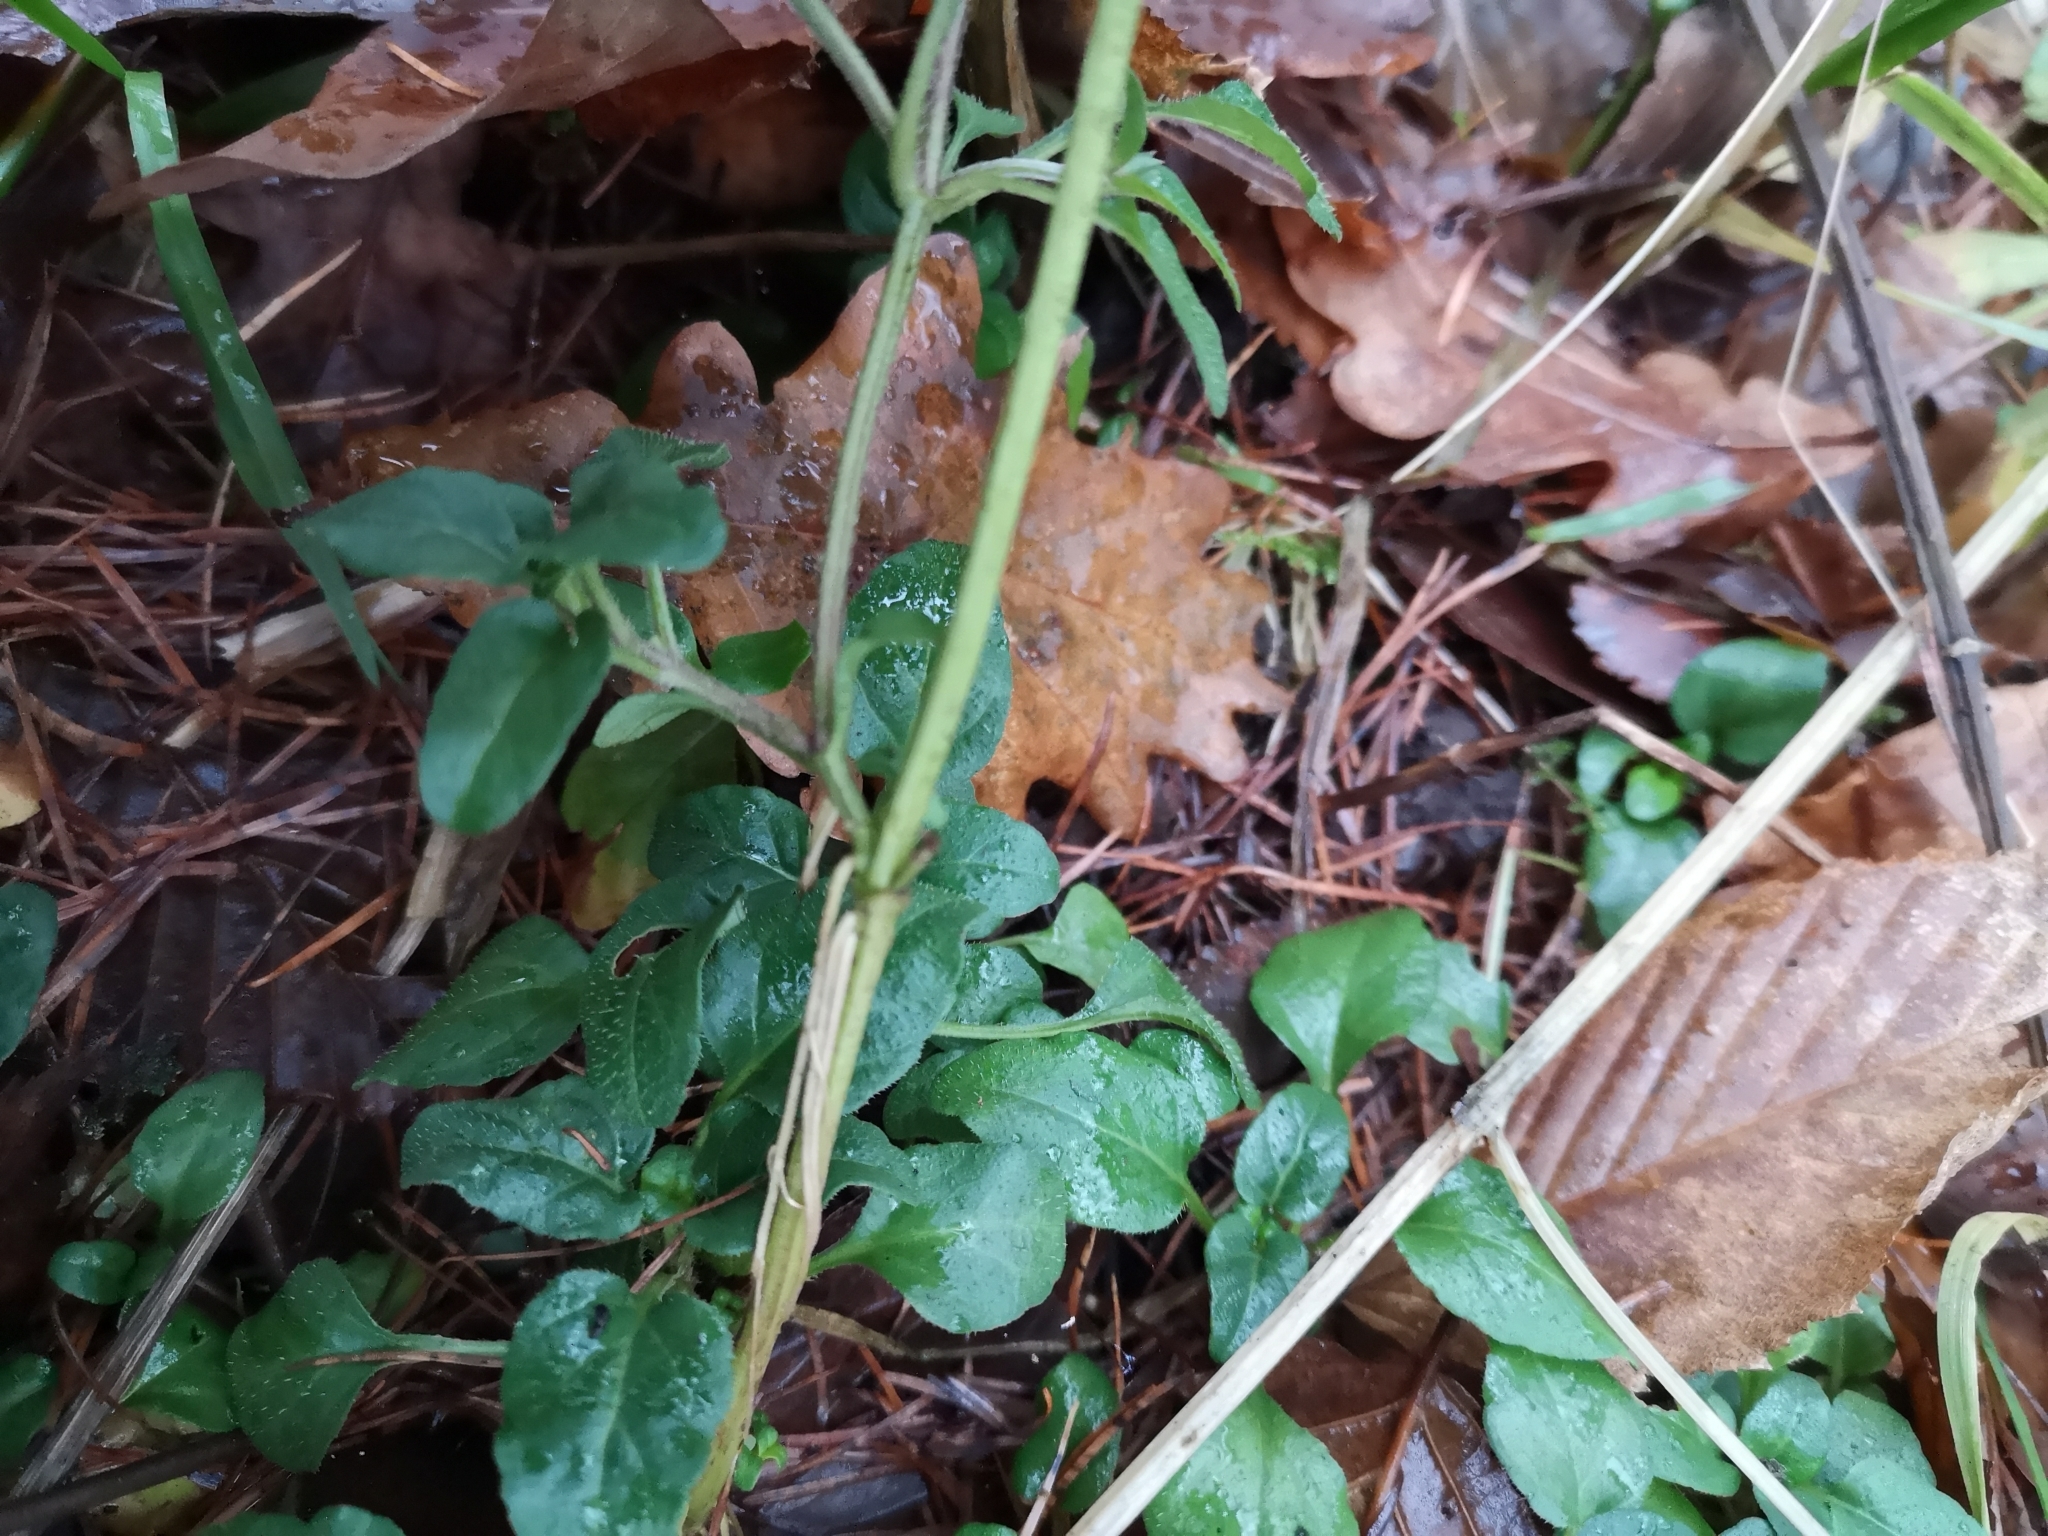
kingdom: Plantae
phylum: Tracheophyta
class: Magnoliopsida
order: Lamiales
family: Lamiaceae
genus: Prunella
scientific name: Prunella vulgaris
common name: Heal-all
